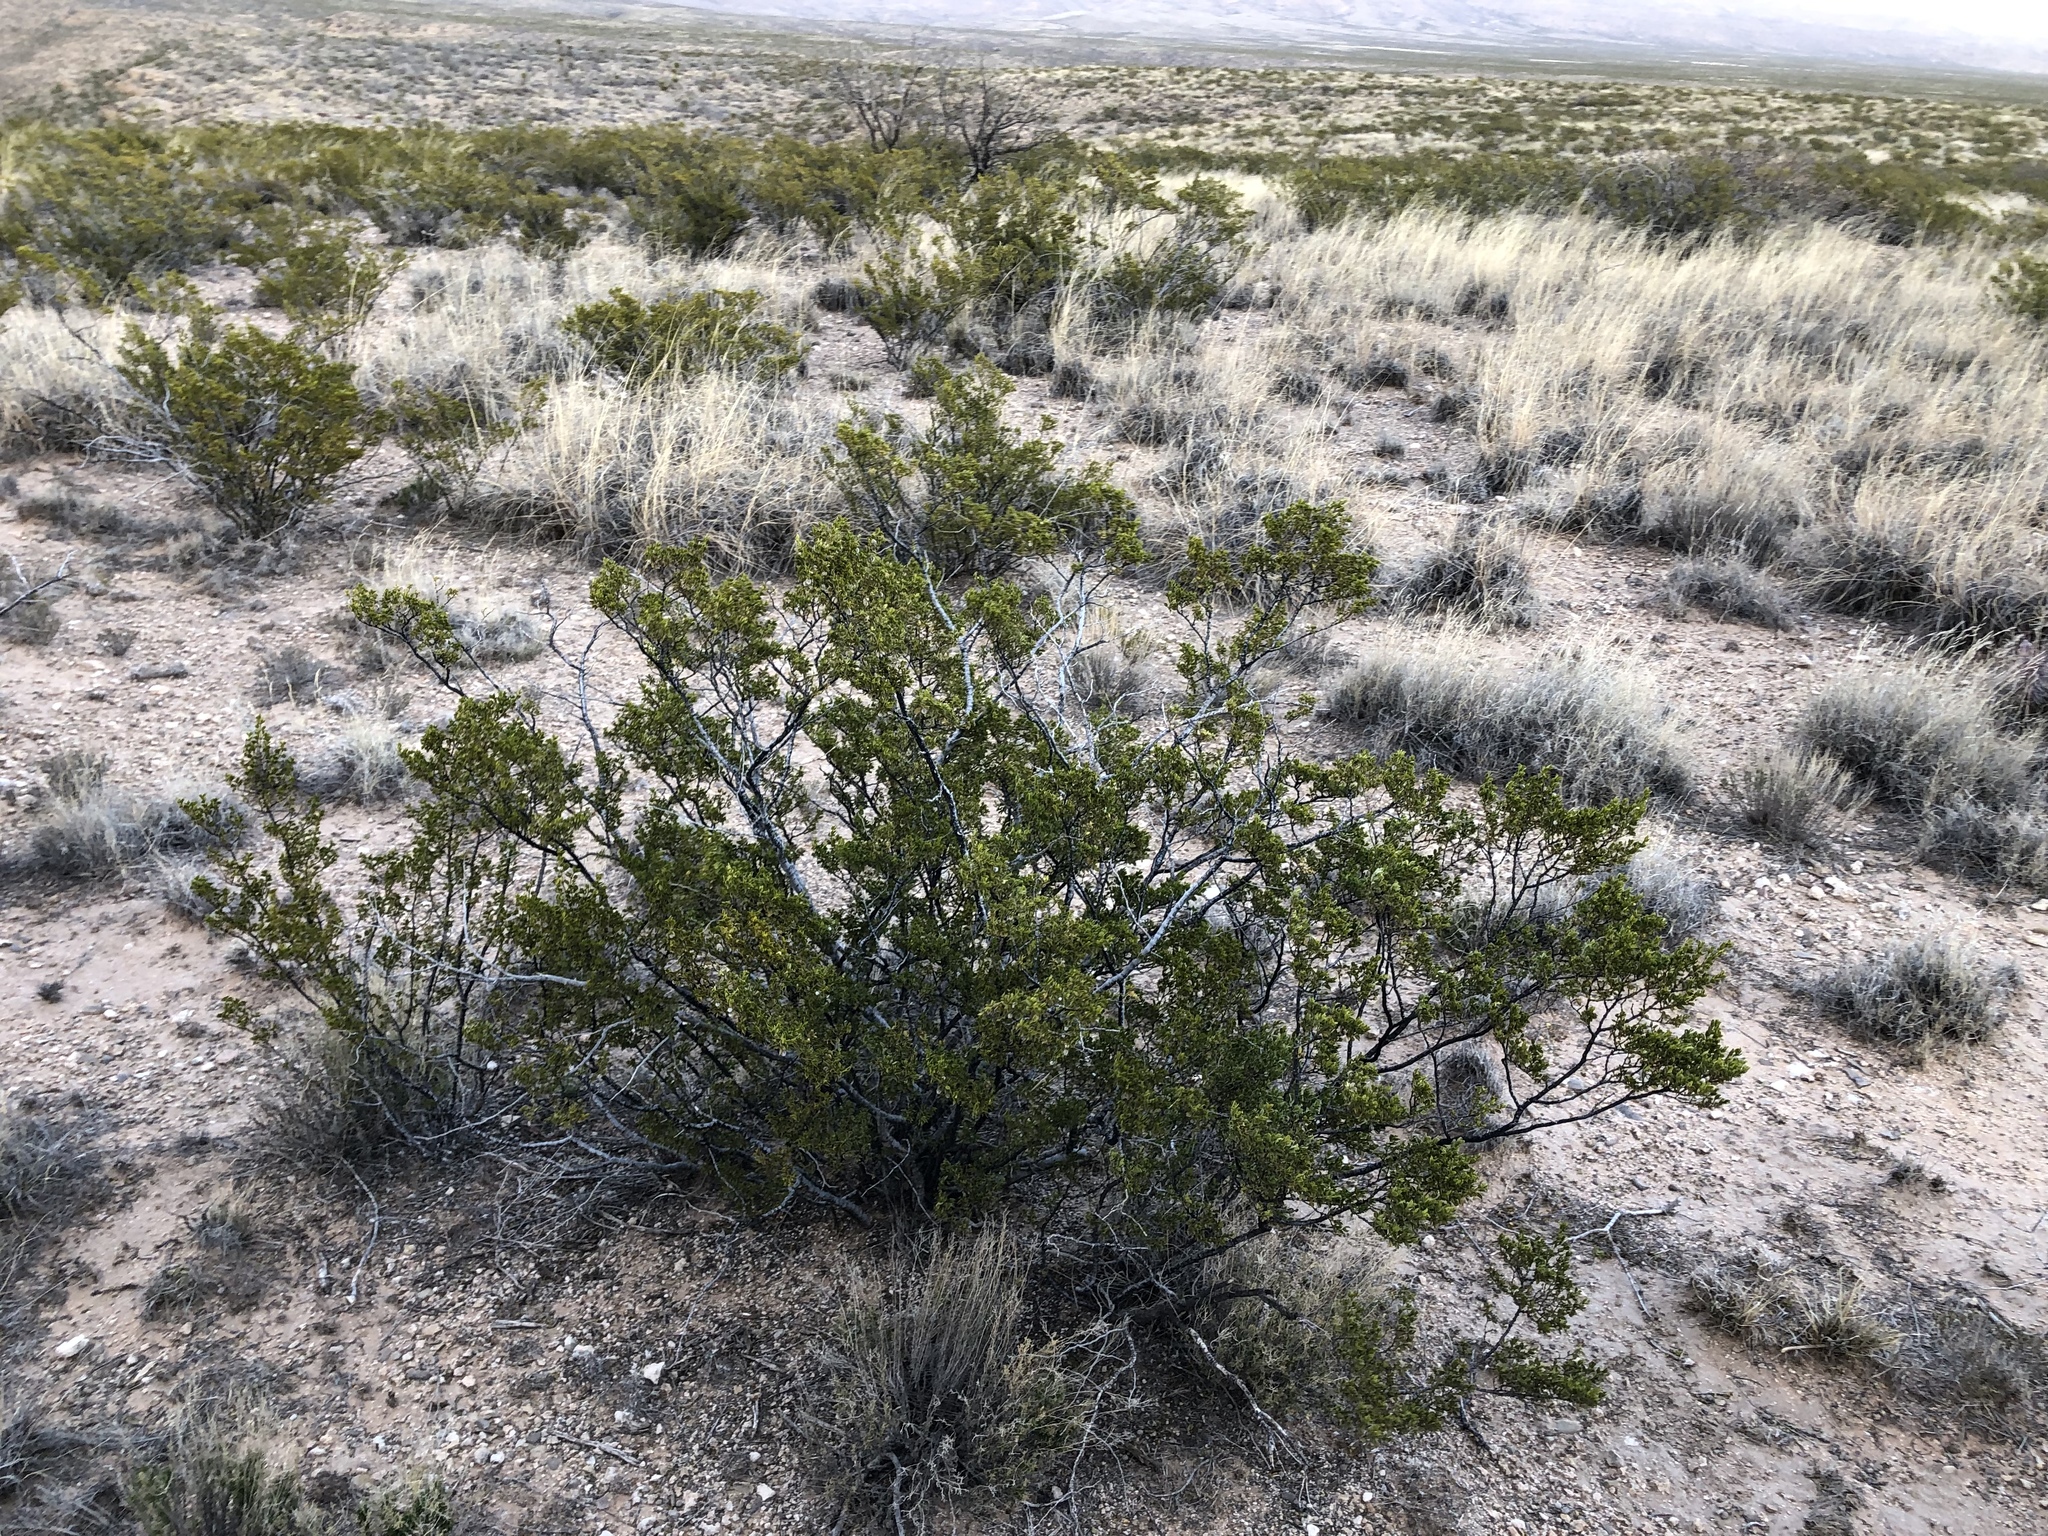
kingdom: Plantae
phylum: Tracheophyta
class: Magnoliopsida
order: Zygophyllales
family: Zygophyllaceae
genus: Larrea
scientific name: Larrea tridentata
